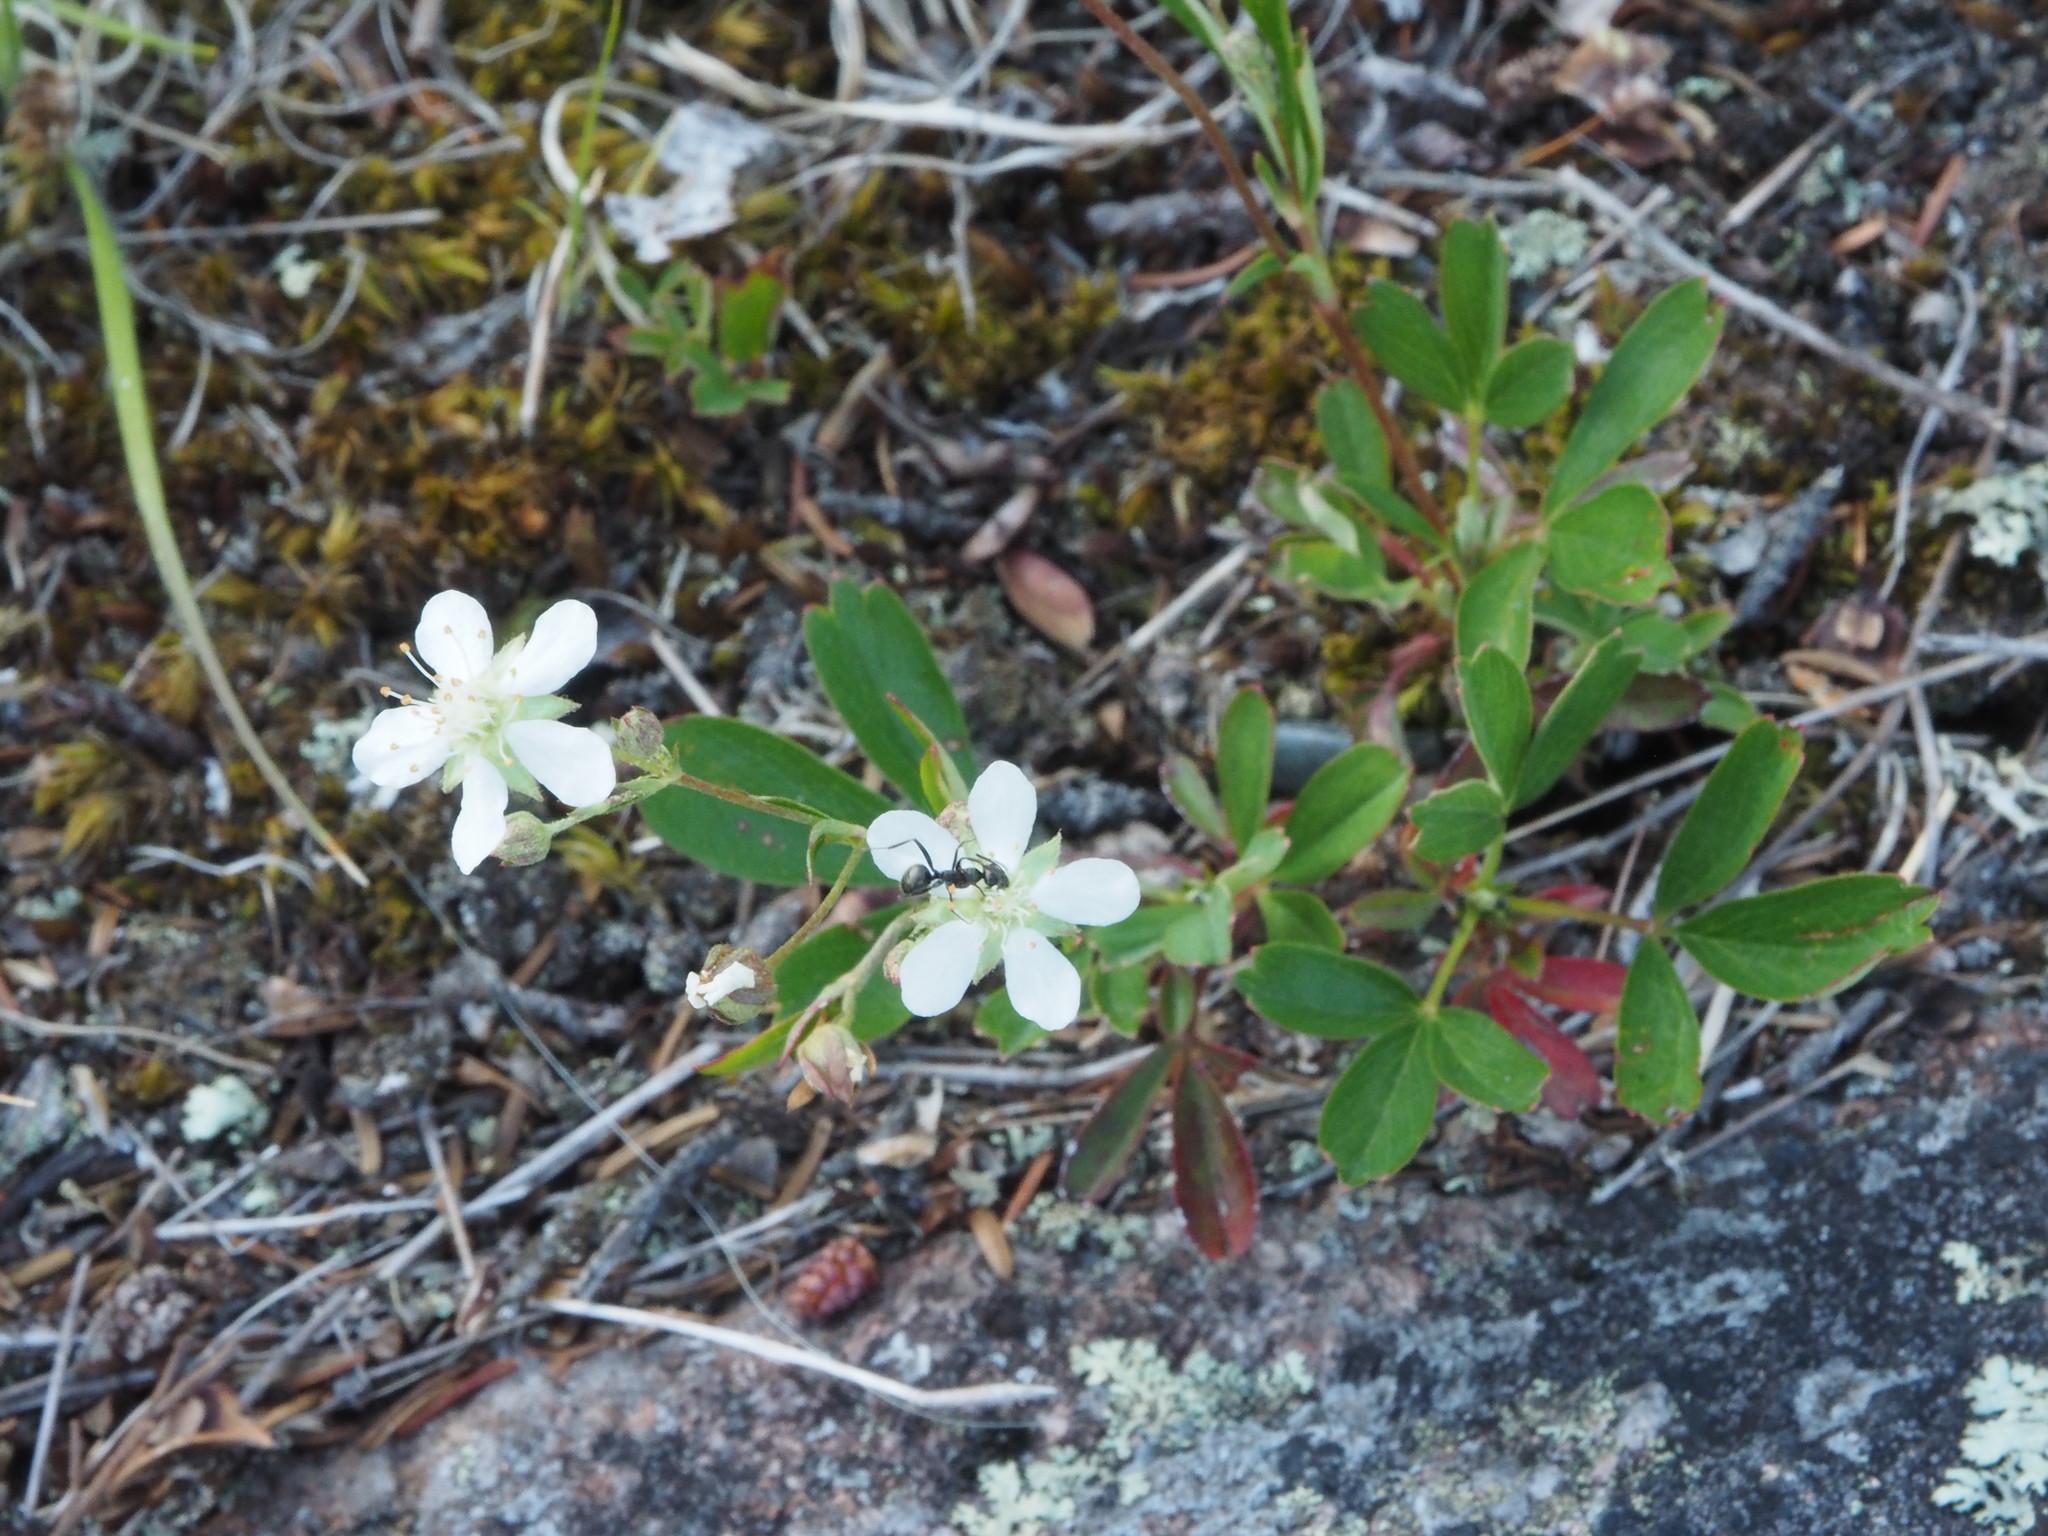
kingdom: Plantae
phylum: Tracheophyta
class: Magnoliopsida
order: Rosales
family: Rosaceae
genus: Sibbaldia
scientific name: Sibbaldia tridentata
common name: Three-toothed cinquefoil
